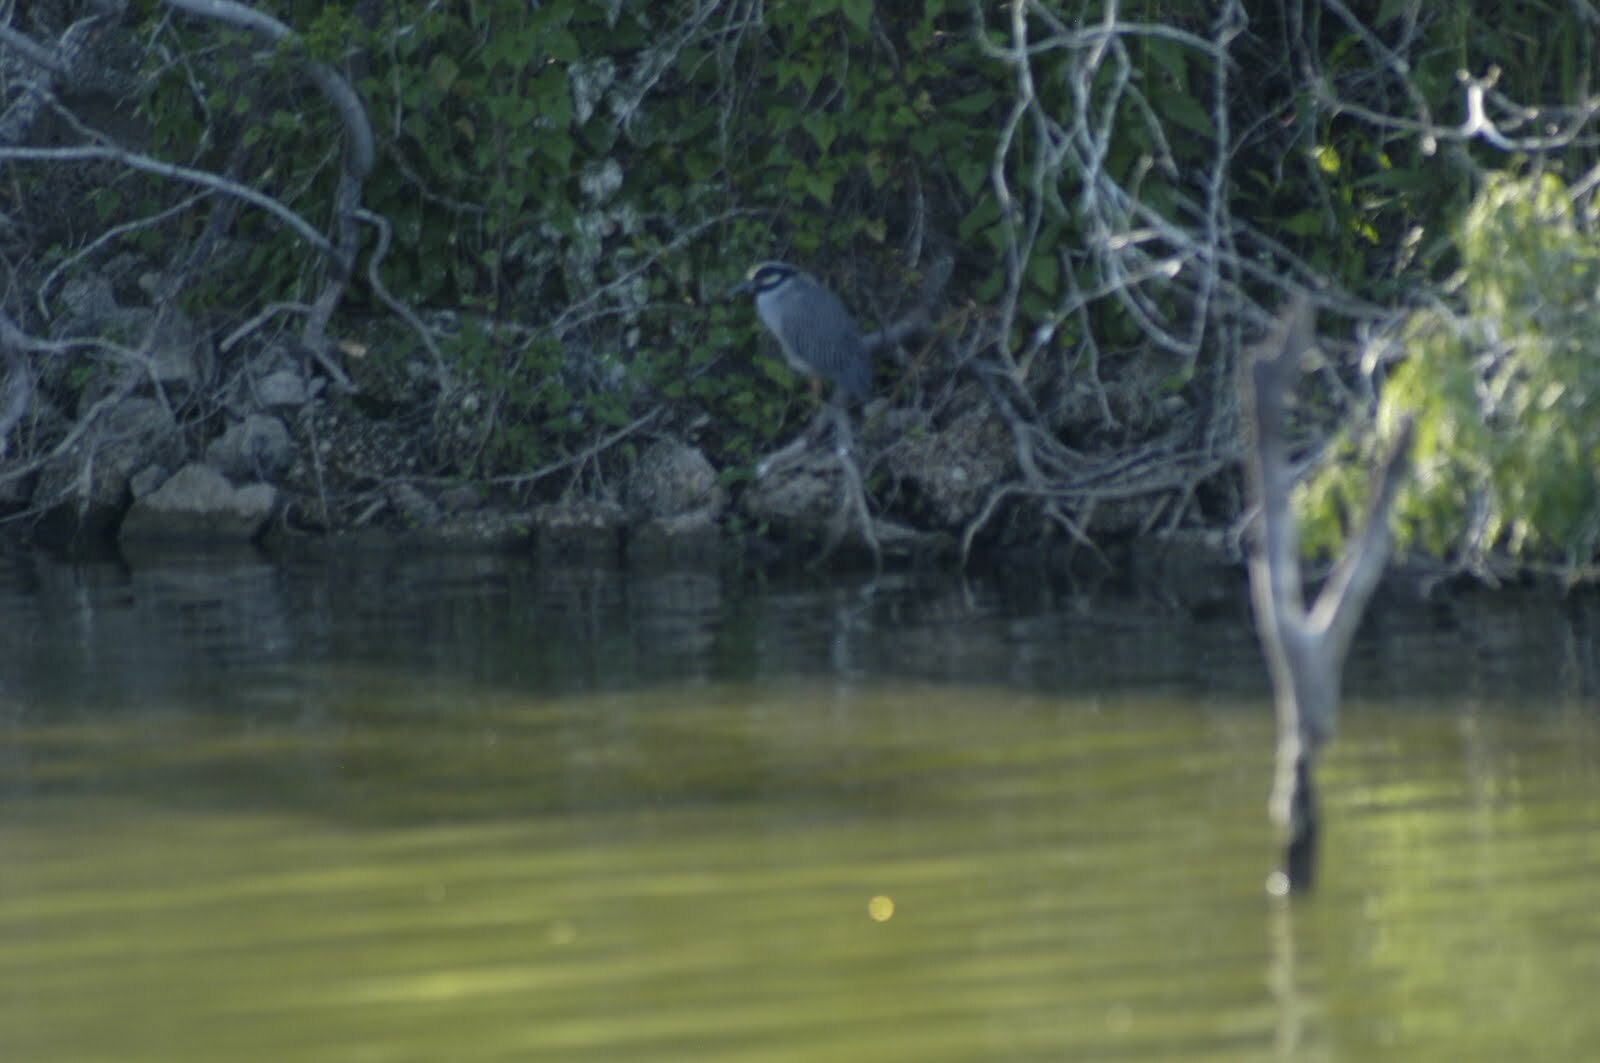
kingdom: Animalia
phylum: Chordata
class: Aves
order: Pelecaniformes
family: Ardeidae
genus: Nyctanassa
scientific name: Nyctanassa violacea
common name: Yellow-crowned night heron
